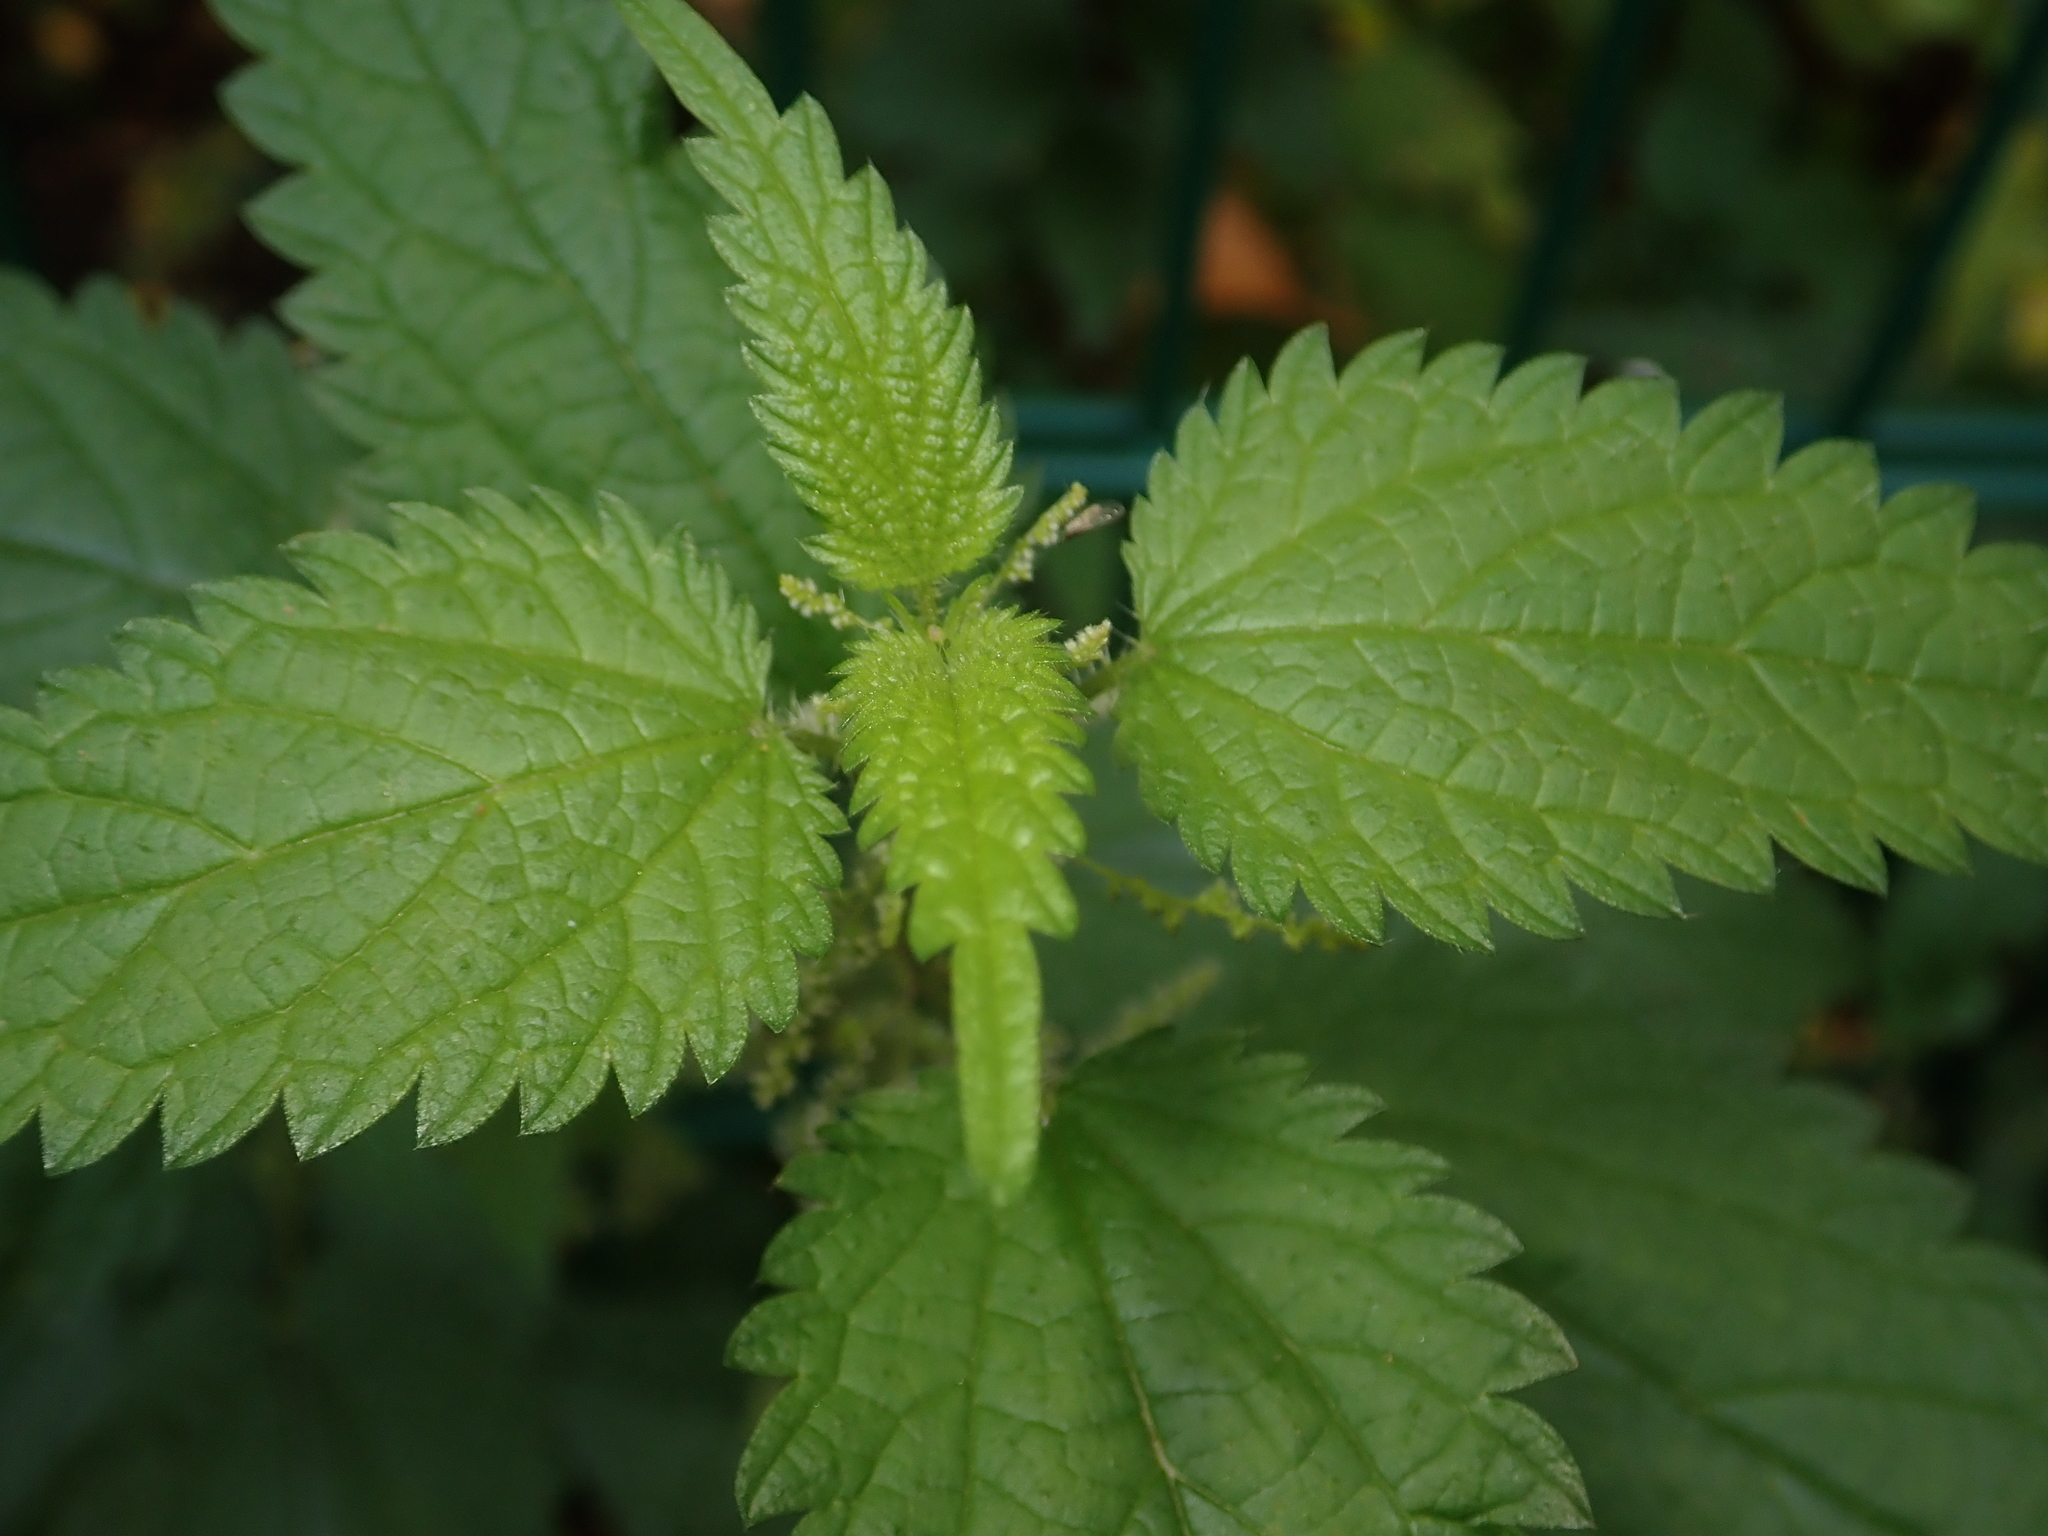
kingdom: Plantae
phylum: Tracheophyta
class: Magnoliopsida
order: Rosales
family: Urticaceae
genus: Urtica
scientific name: Urtica dioica
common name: Common nettle
